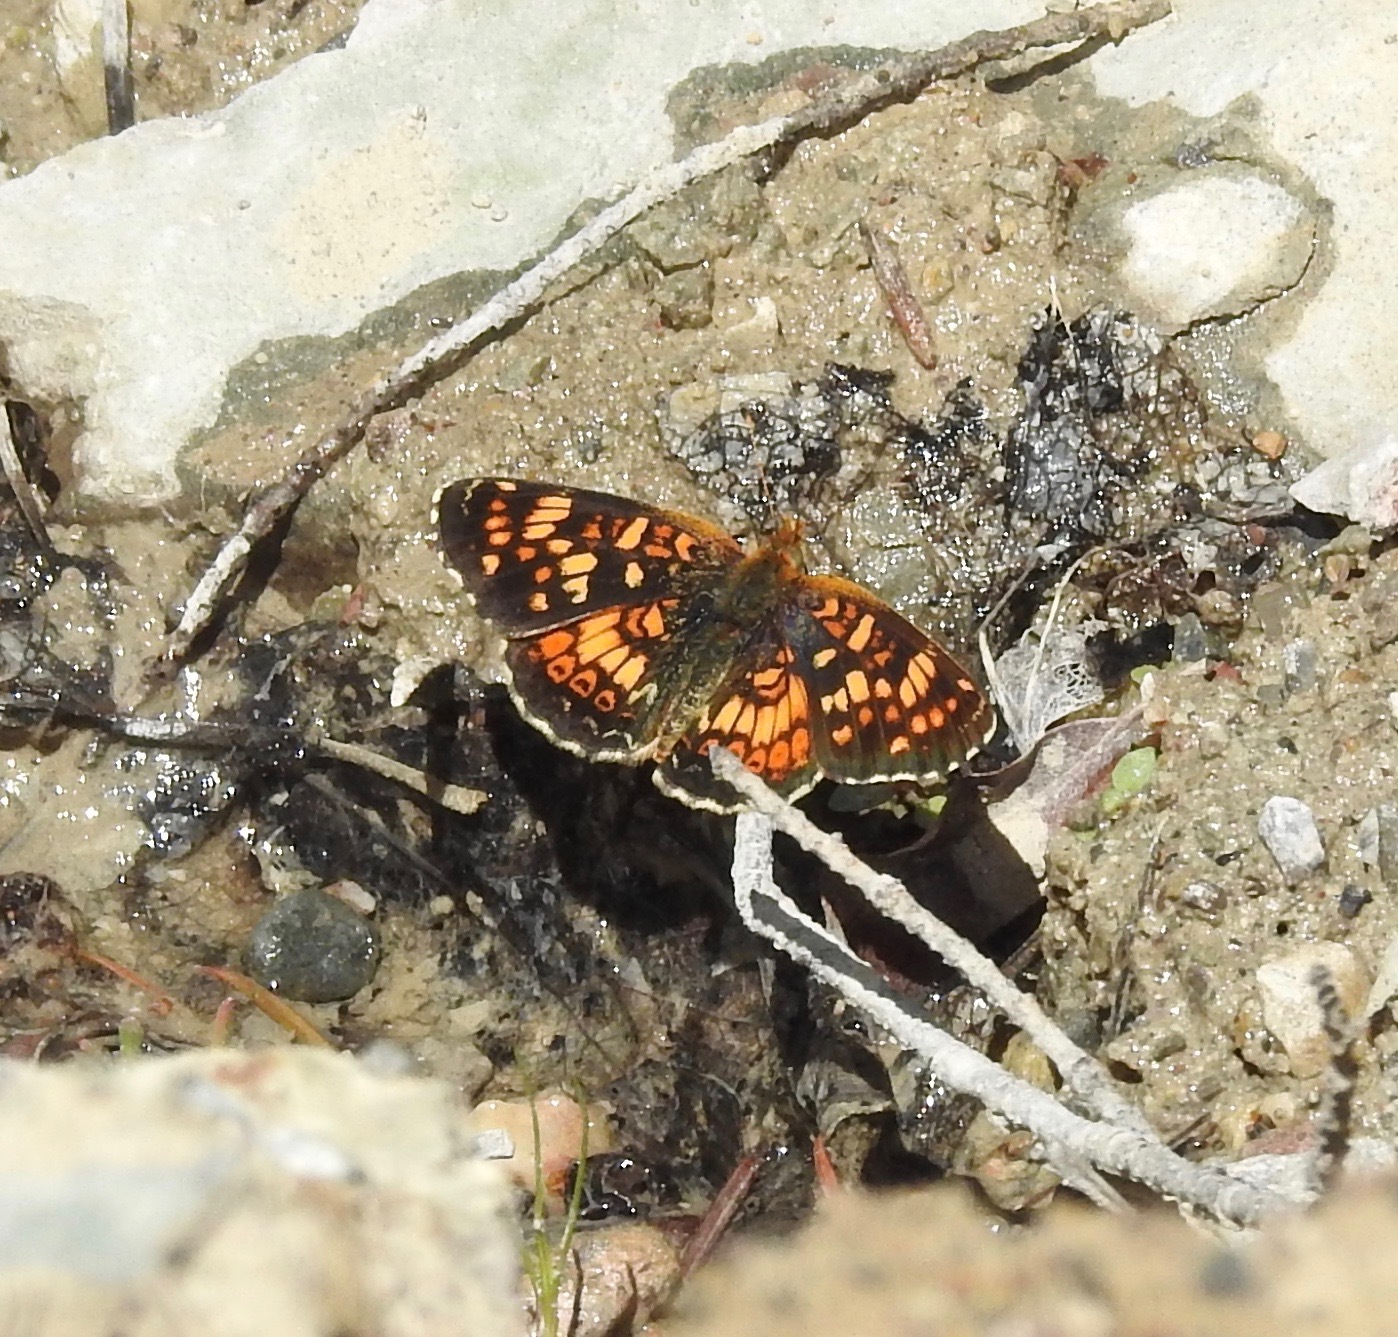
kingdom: Animalia
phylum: Arthropoda
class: Insecta
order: Lepidoptera
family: Nymphalidae
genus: Phyciodes
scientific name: Phyciodes tharos
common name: Pearl crescent
